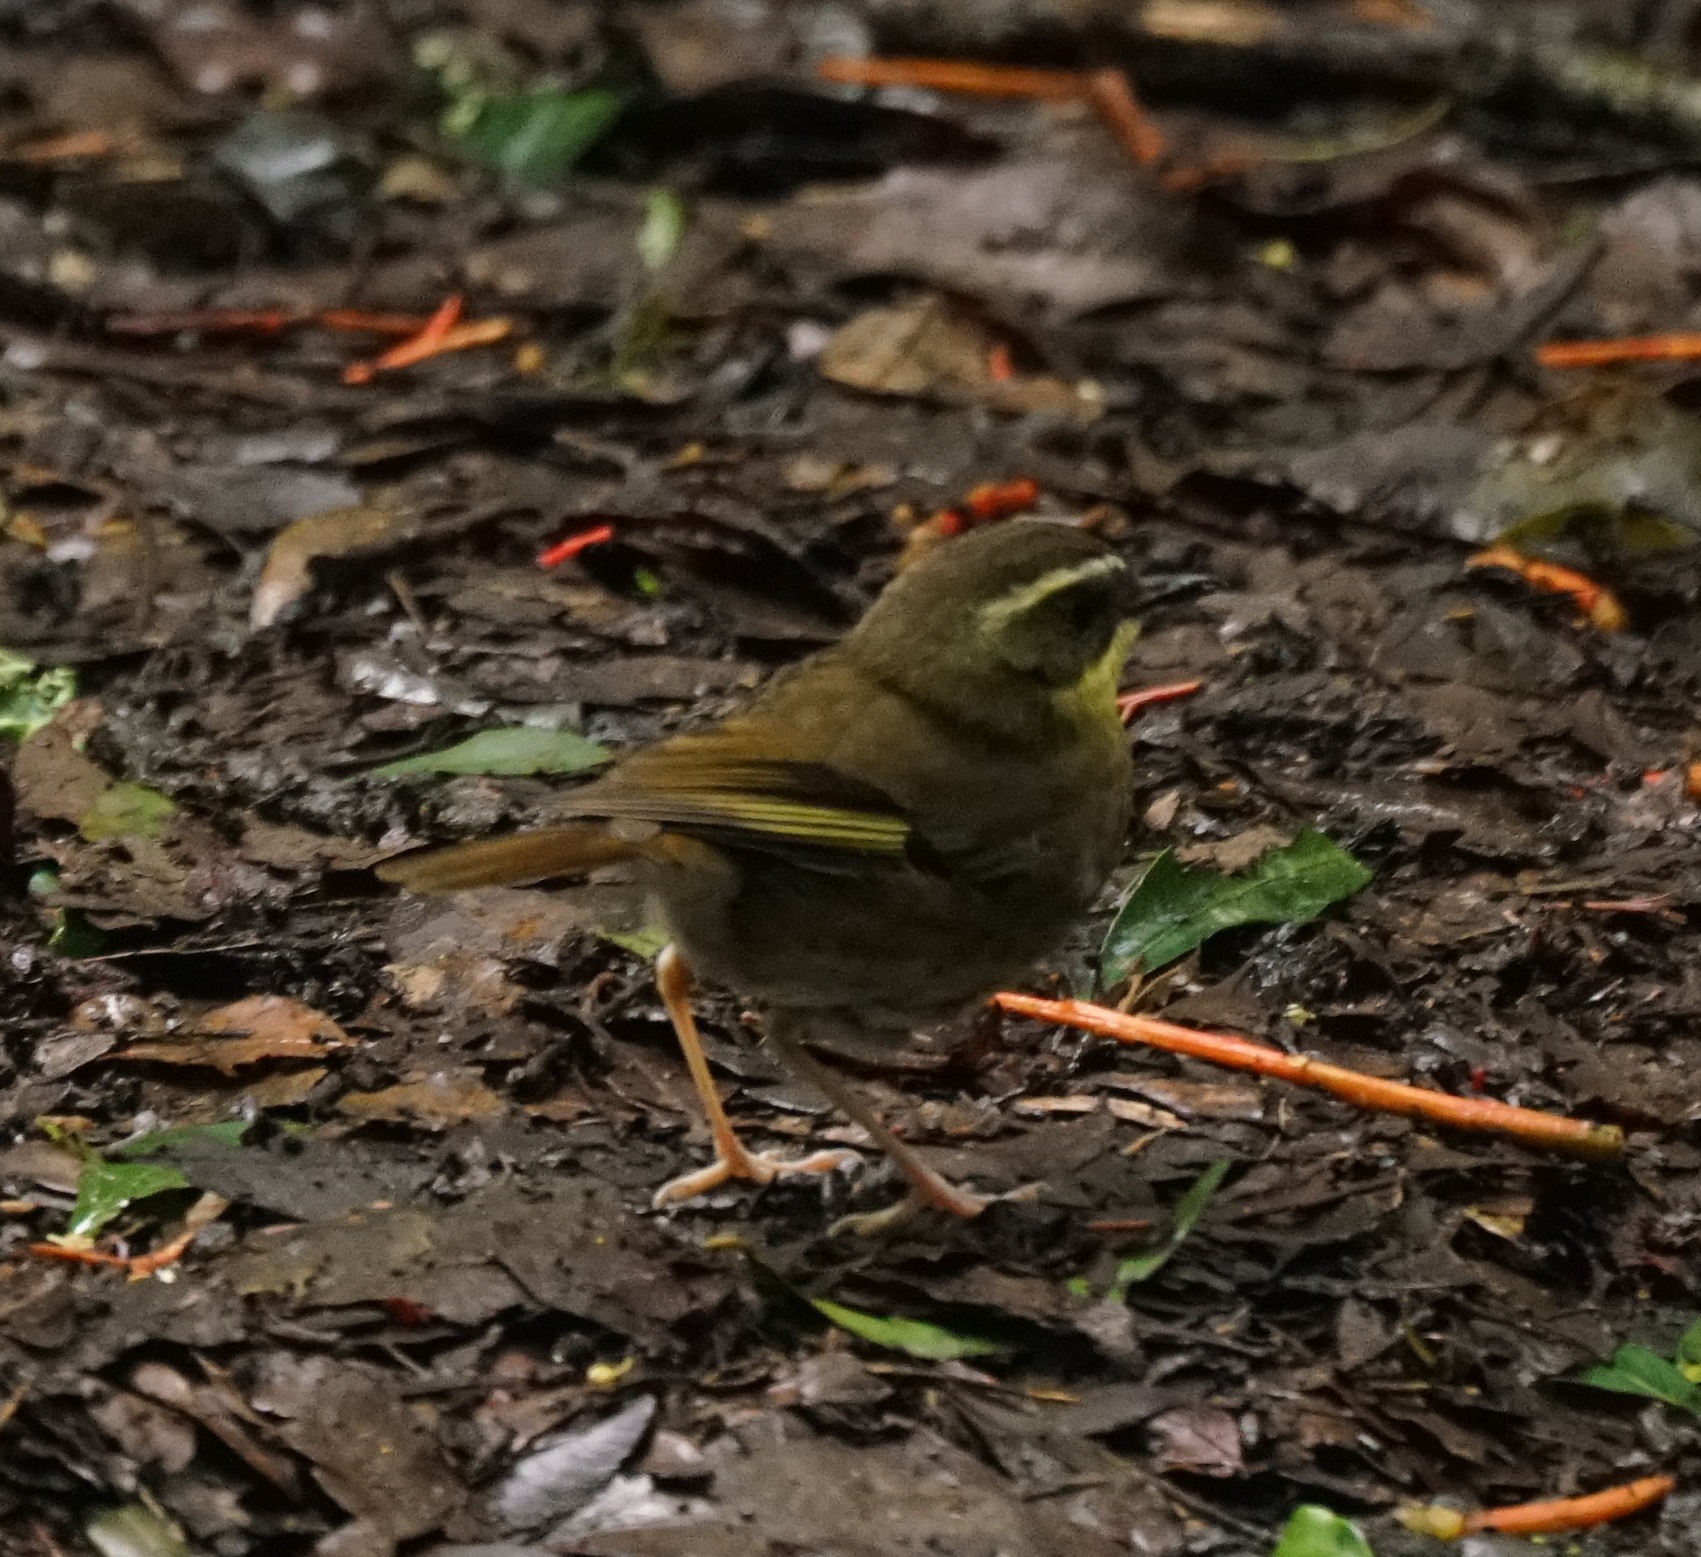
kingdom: Animalia
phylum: Chordata
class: Aves
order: Passeriformes
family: Acanthizidae
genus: Sericornis
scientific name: Sericornis citreogularis
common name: Yellow-throated scrubwren
